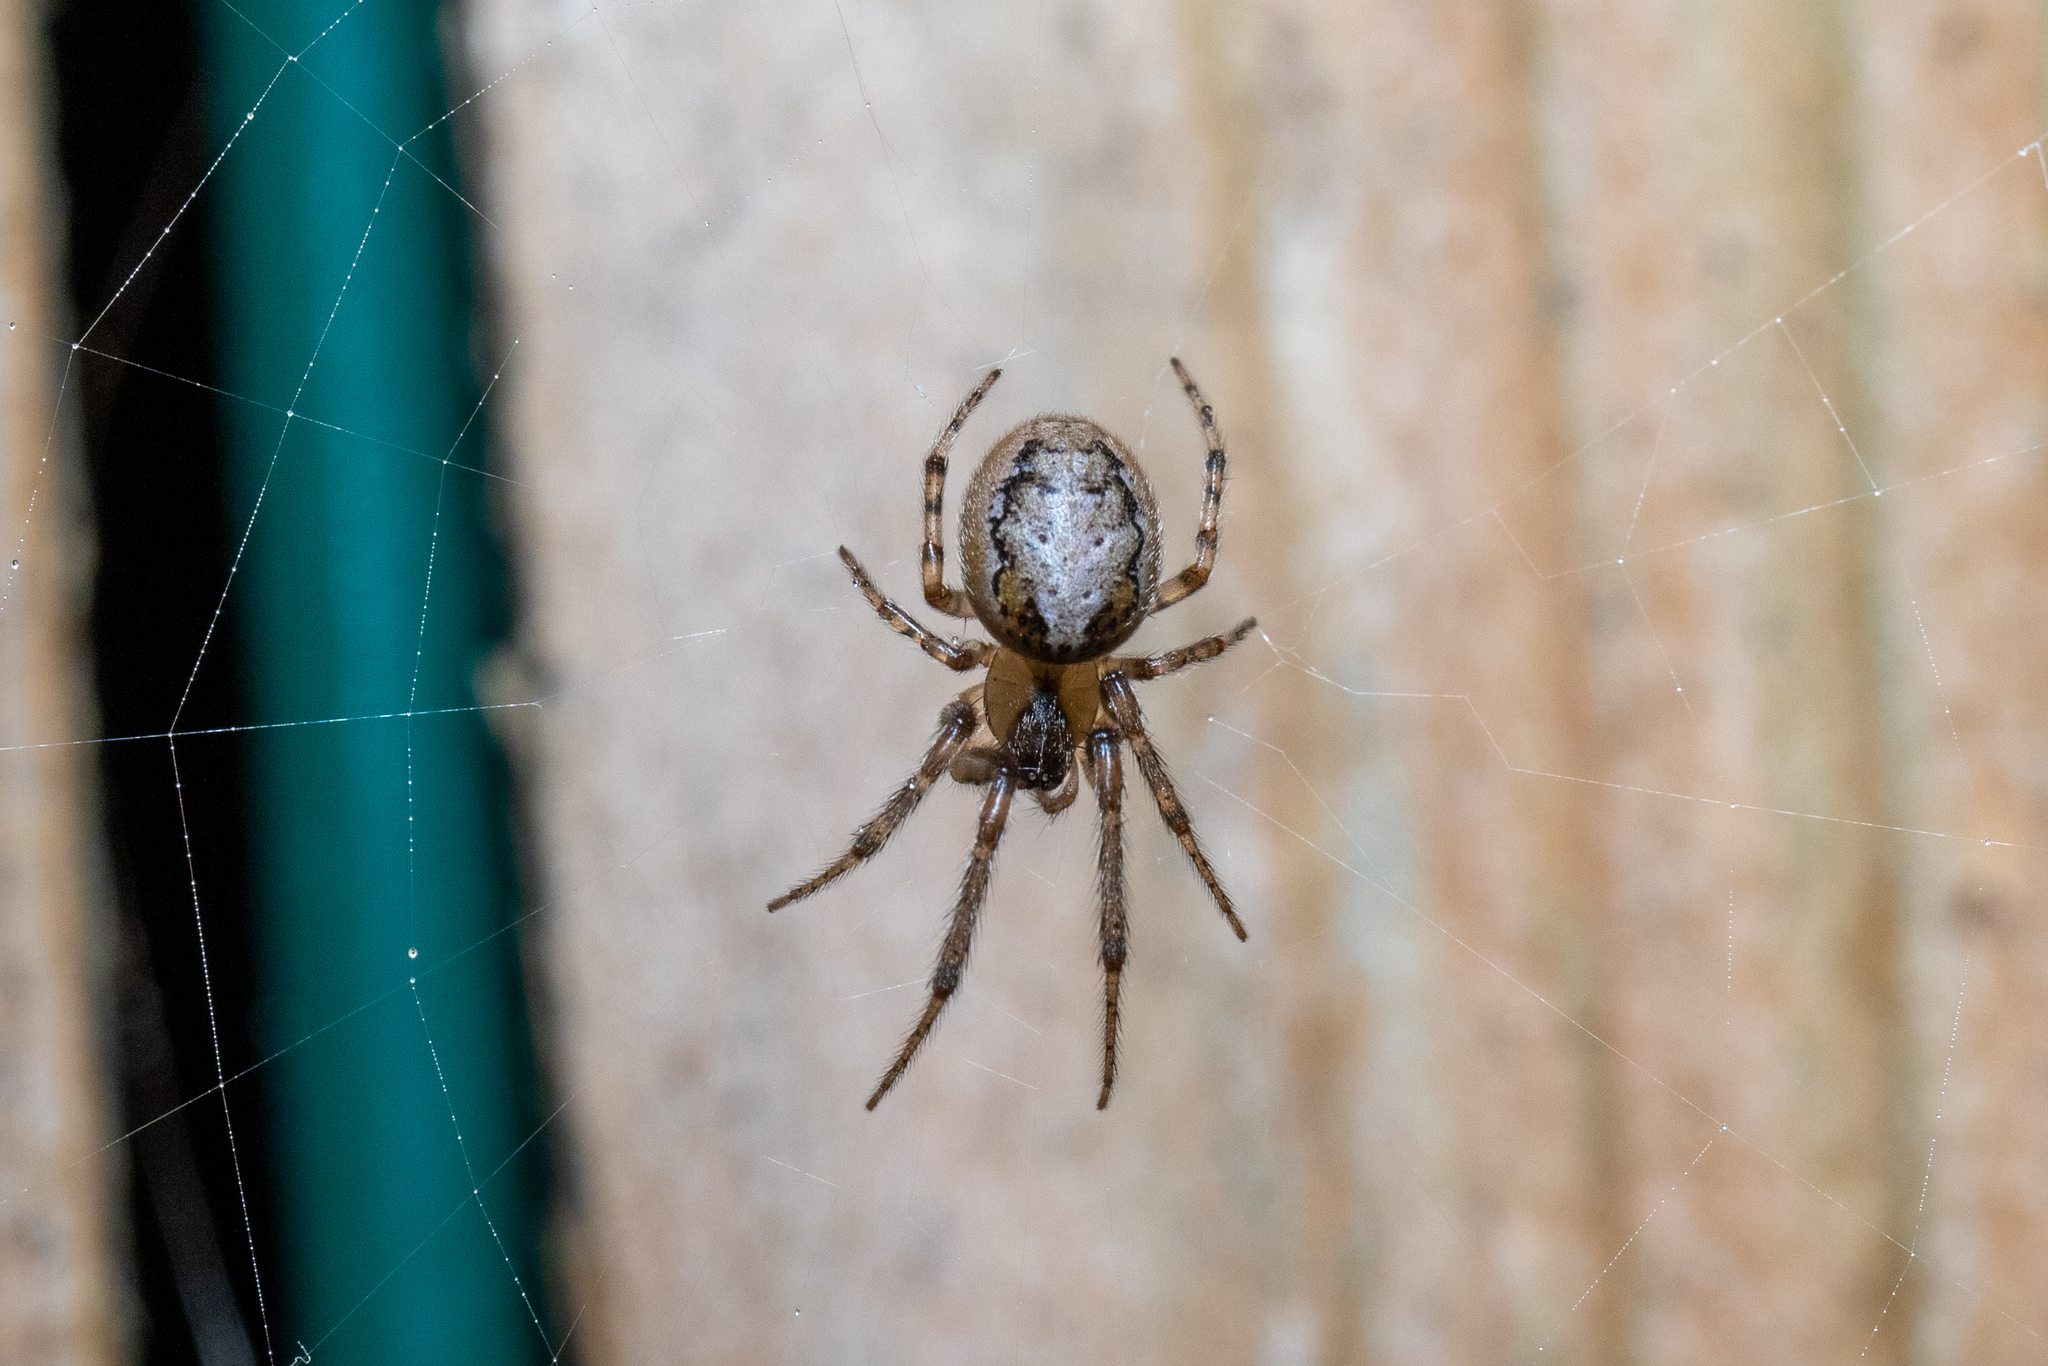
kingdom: Animalia
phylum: Arthropoda
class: Arachnida
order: Araneae
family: Araneidae
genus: Zygiella
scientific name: Zygiella x-notata
